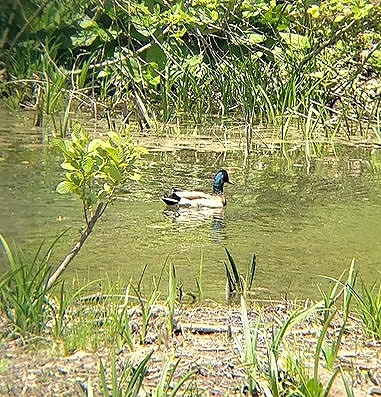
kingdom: Animalia
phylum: Chordata
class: Aves
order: Anseriformes
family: Anatidae
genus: Anas
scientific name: Anas platyrhynchos
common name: Mallard
